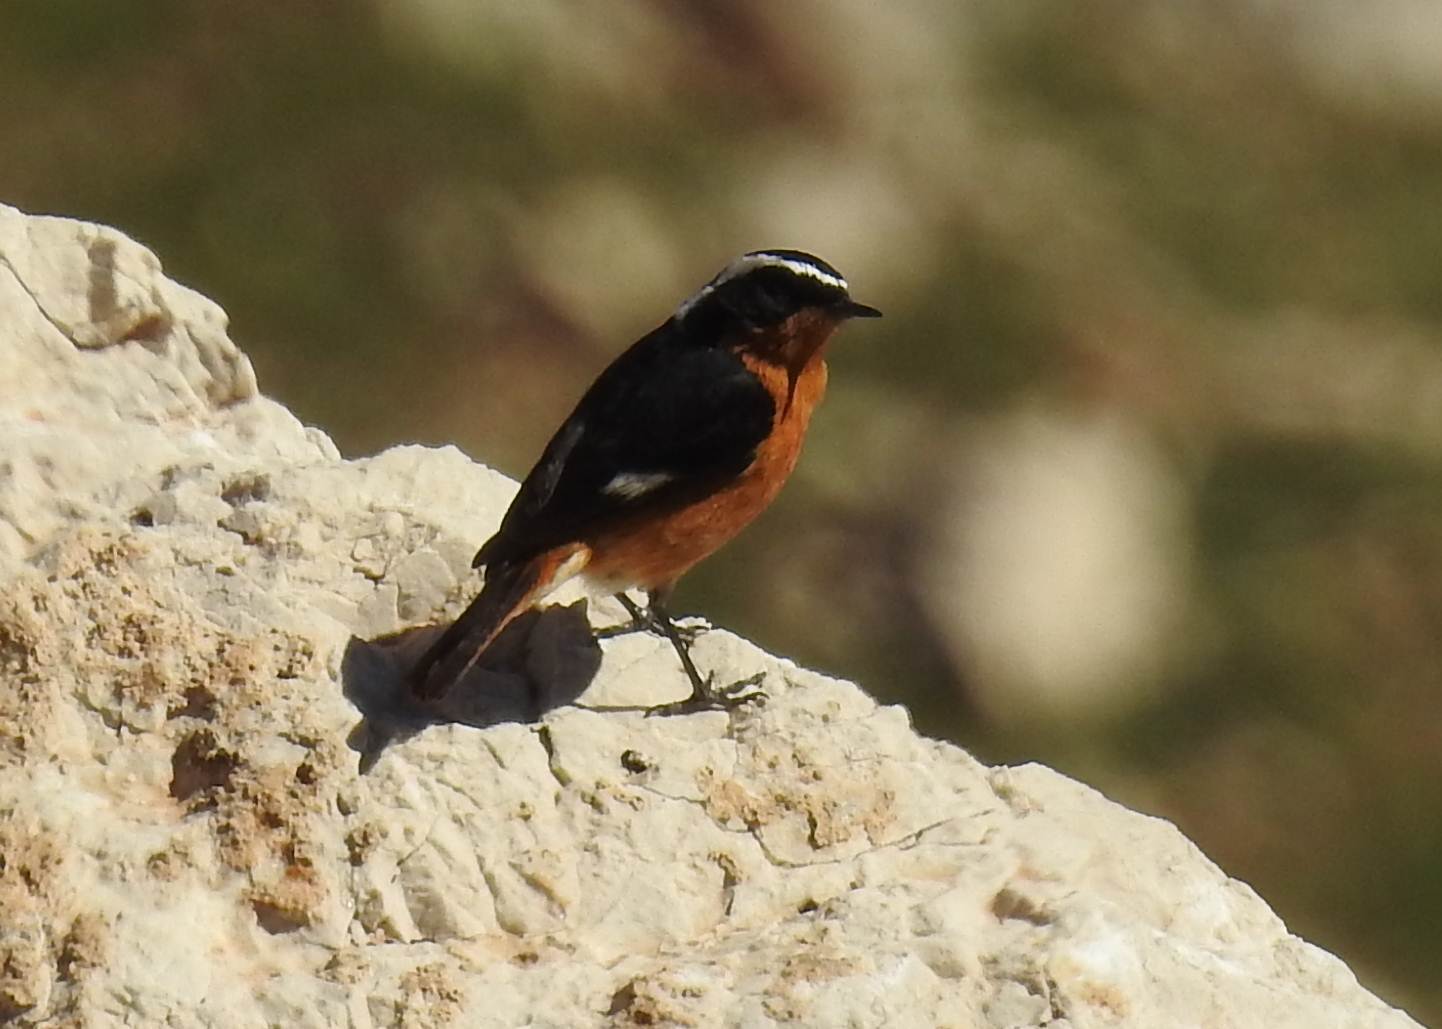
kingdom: Animalia
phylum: Chordata
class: Aves
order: Passeriformes
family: Muscicapidae
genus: Phoenicurus
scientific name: Phoenicurus moussieri
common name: Moussier's redstart
